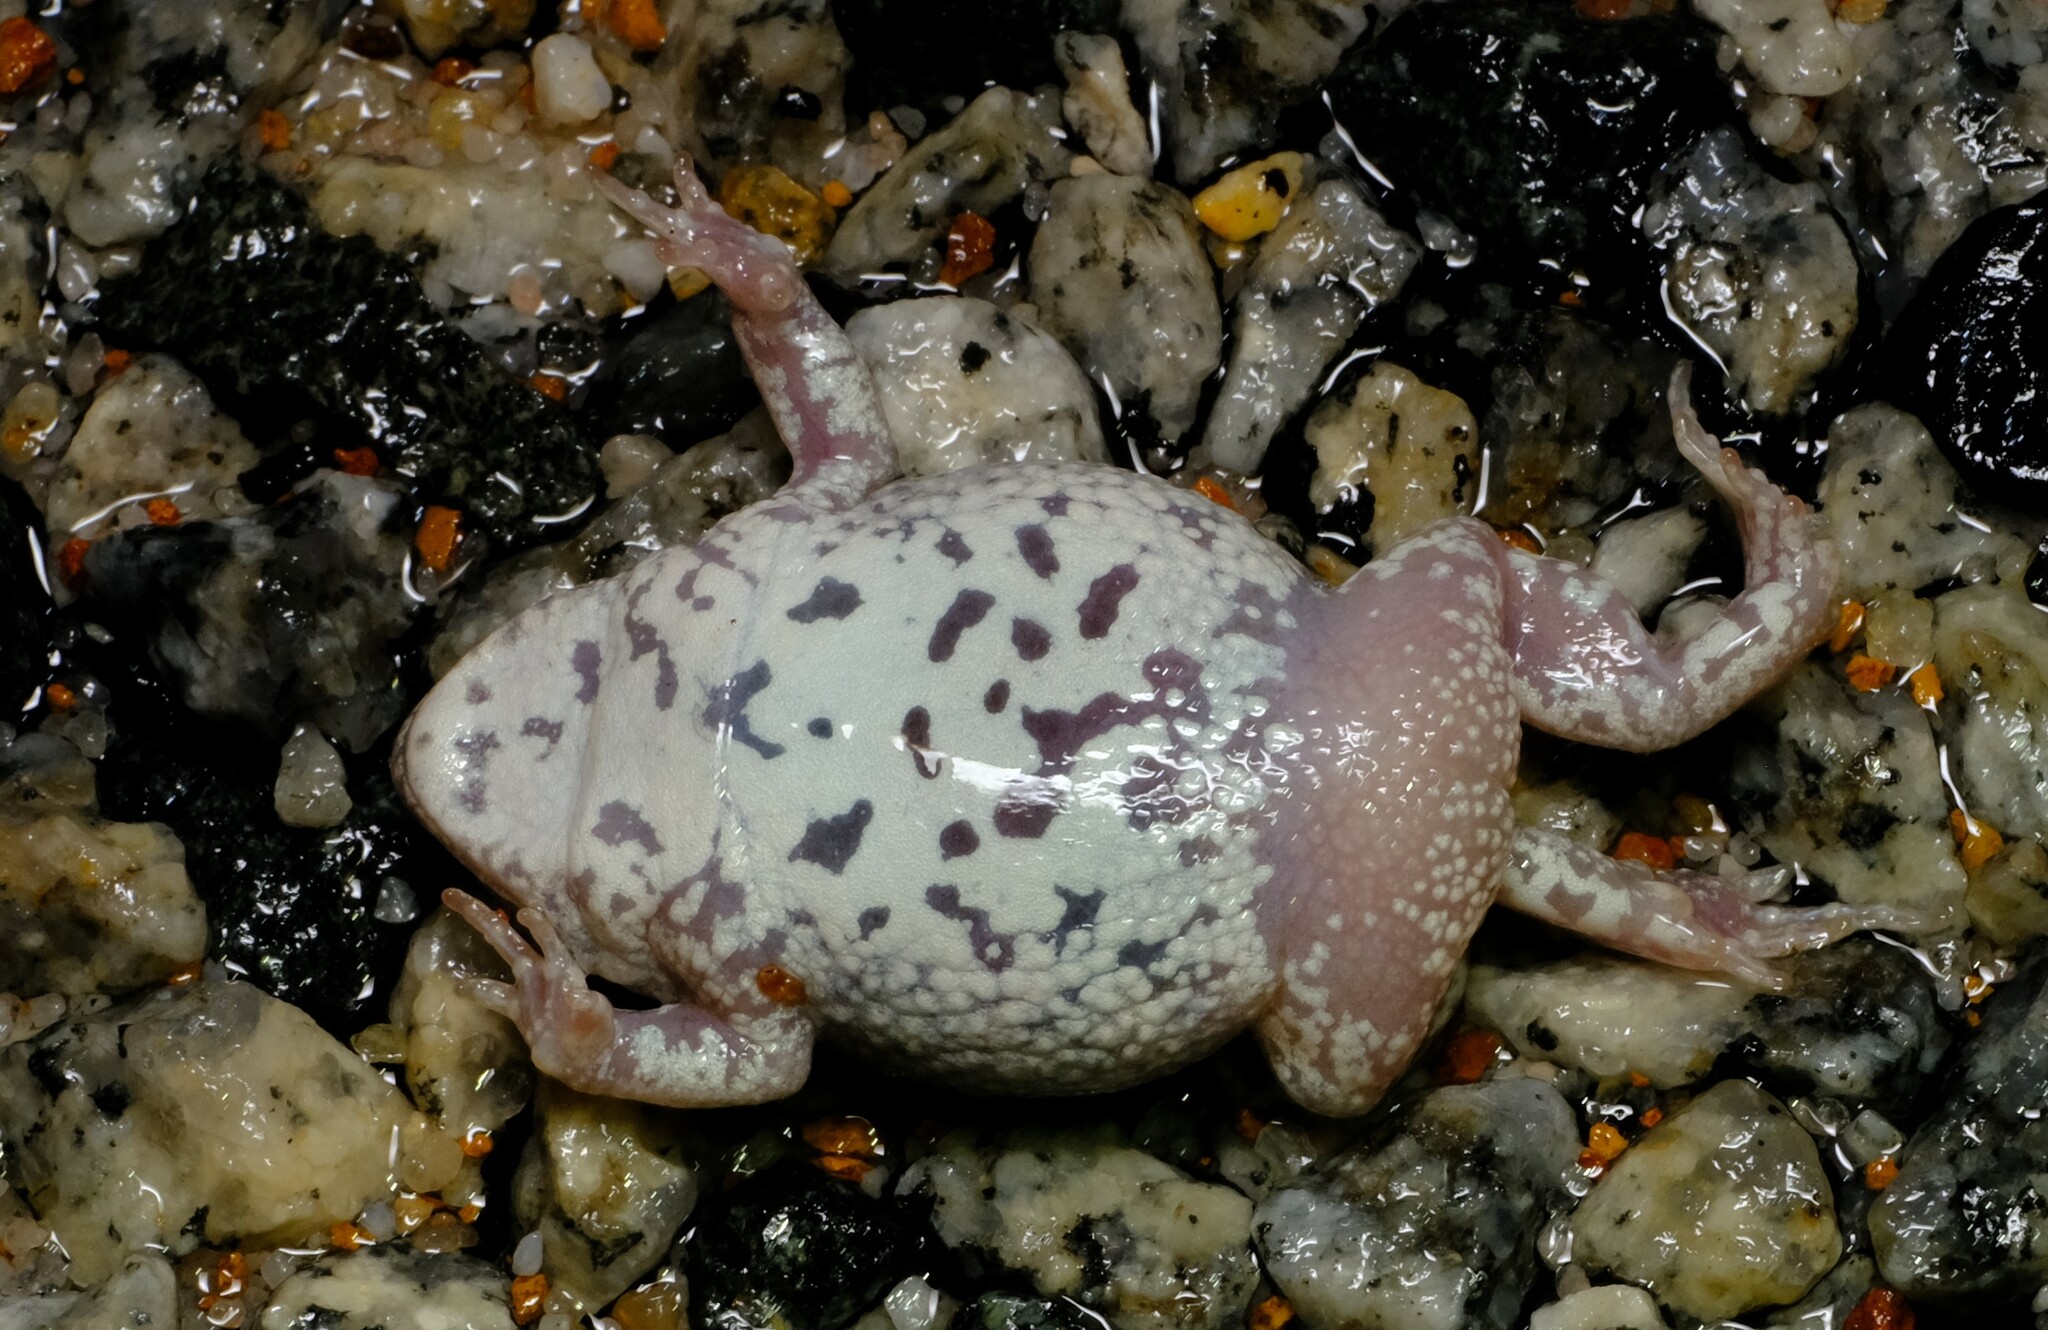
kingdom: Animalia
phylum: Chordata
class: Amphibia
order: Anura
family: Myobatrachidae
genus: Pseudophryne
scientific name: Pseudophryne guentheri
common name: Günther’s toadlet
